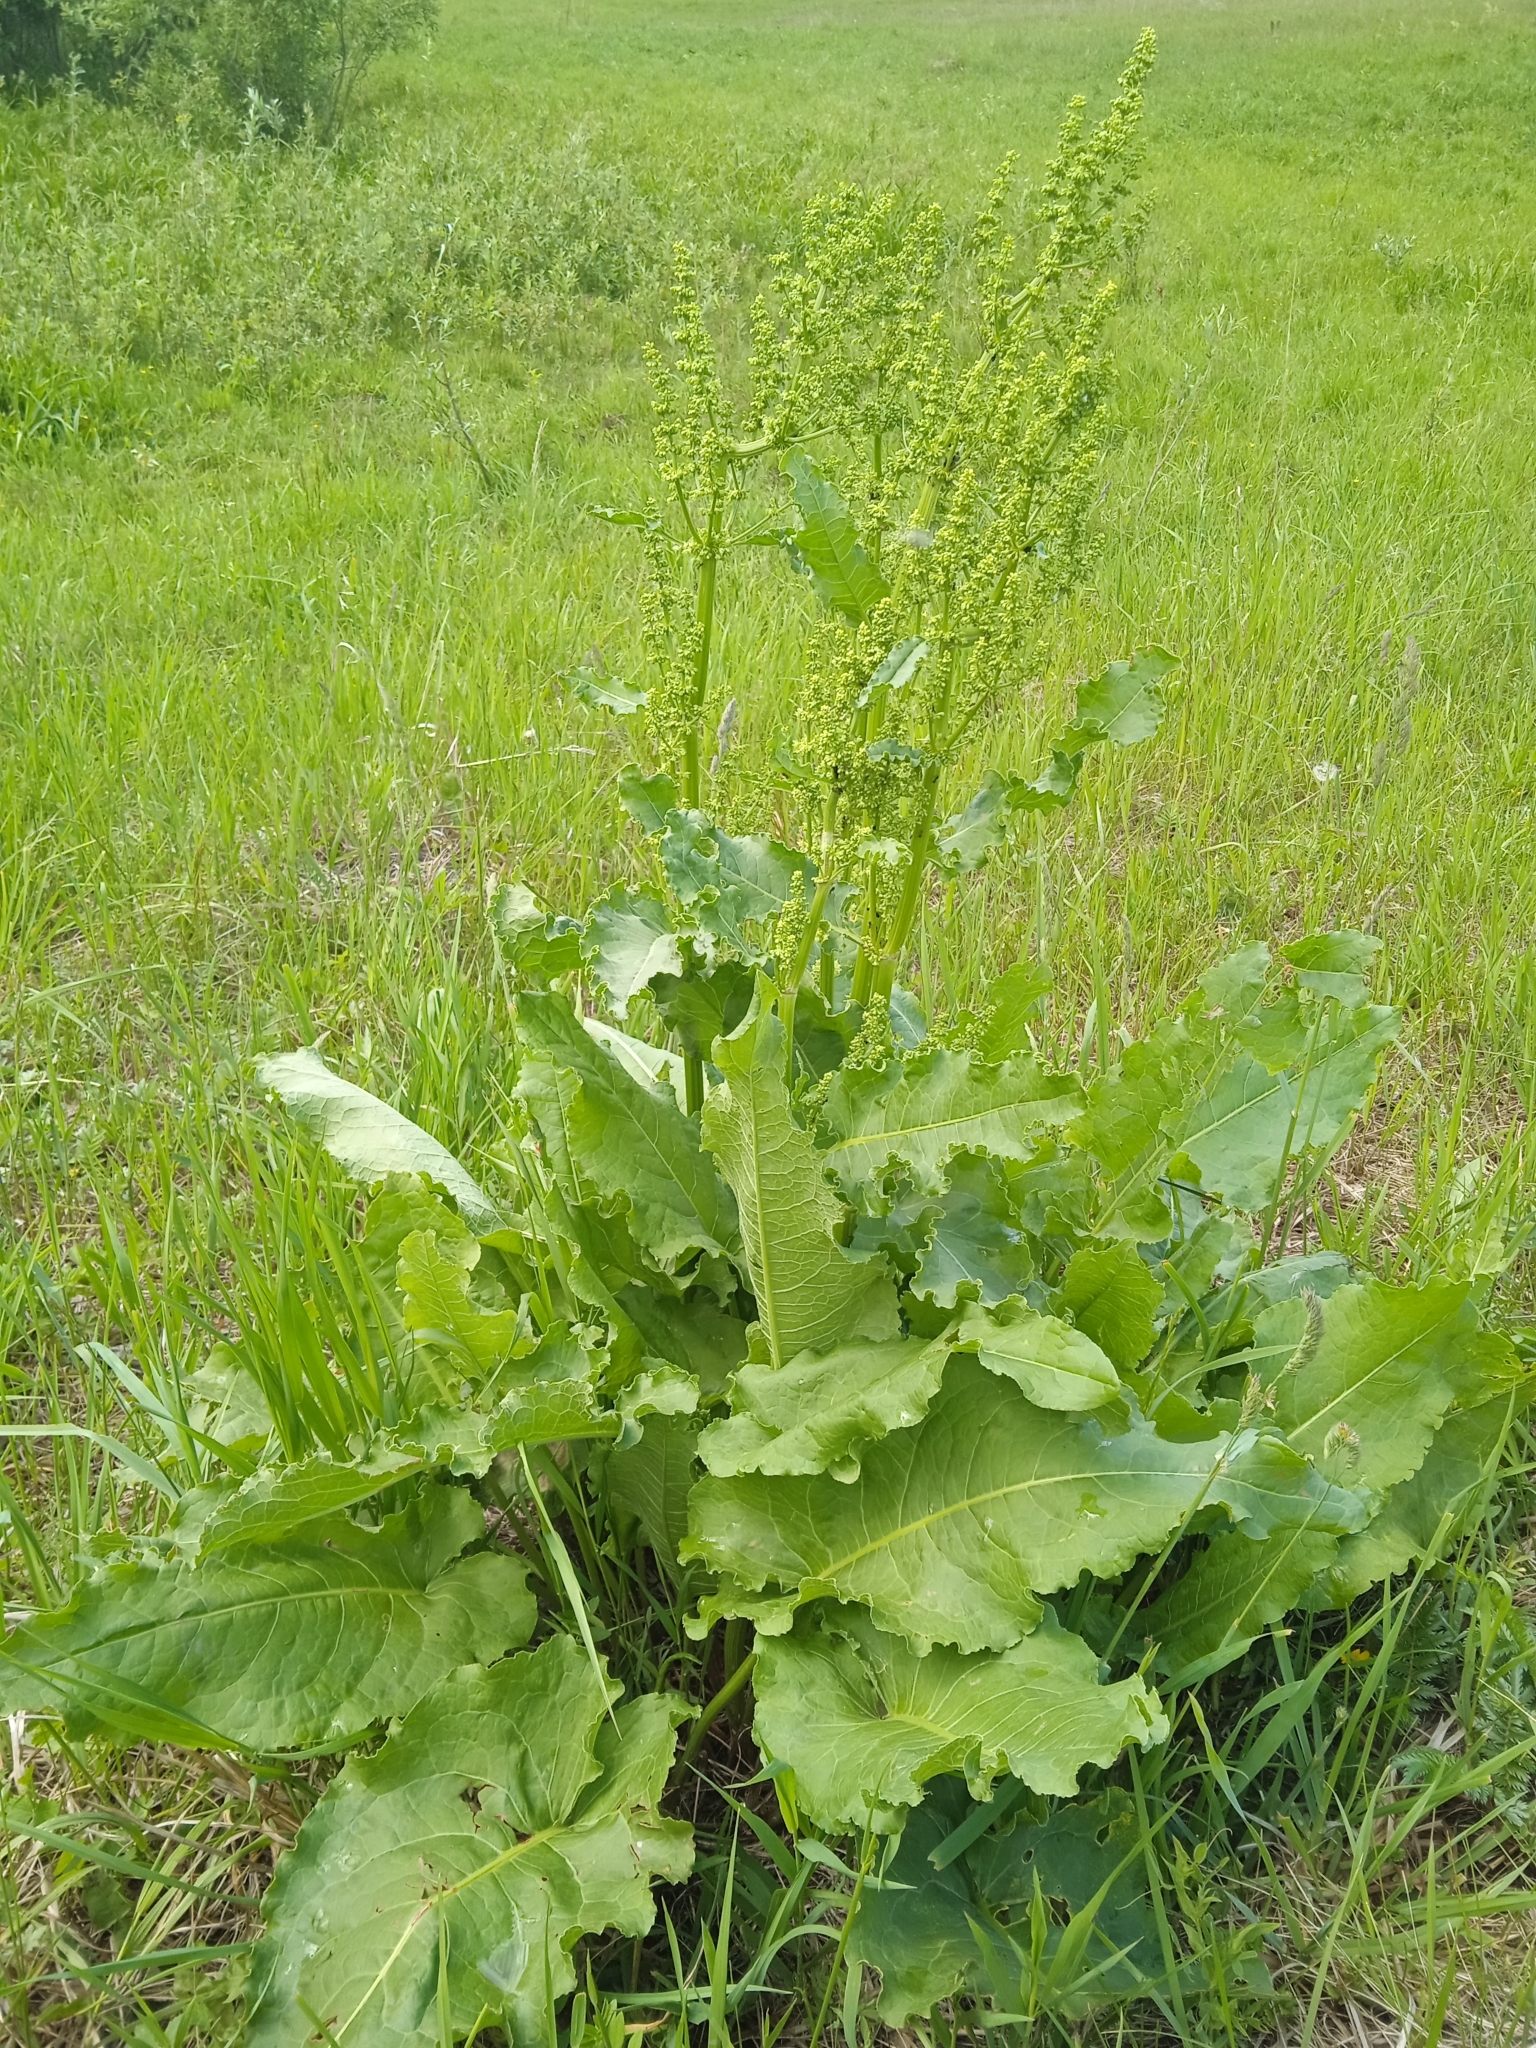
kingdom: Plantae
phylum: Tracheophyta
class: Magnoliopsida
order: Caryophyllales
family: Polygonaceae
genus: Rumex
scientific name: Rumex confertus
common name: Russian dock
